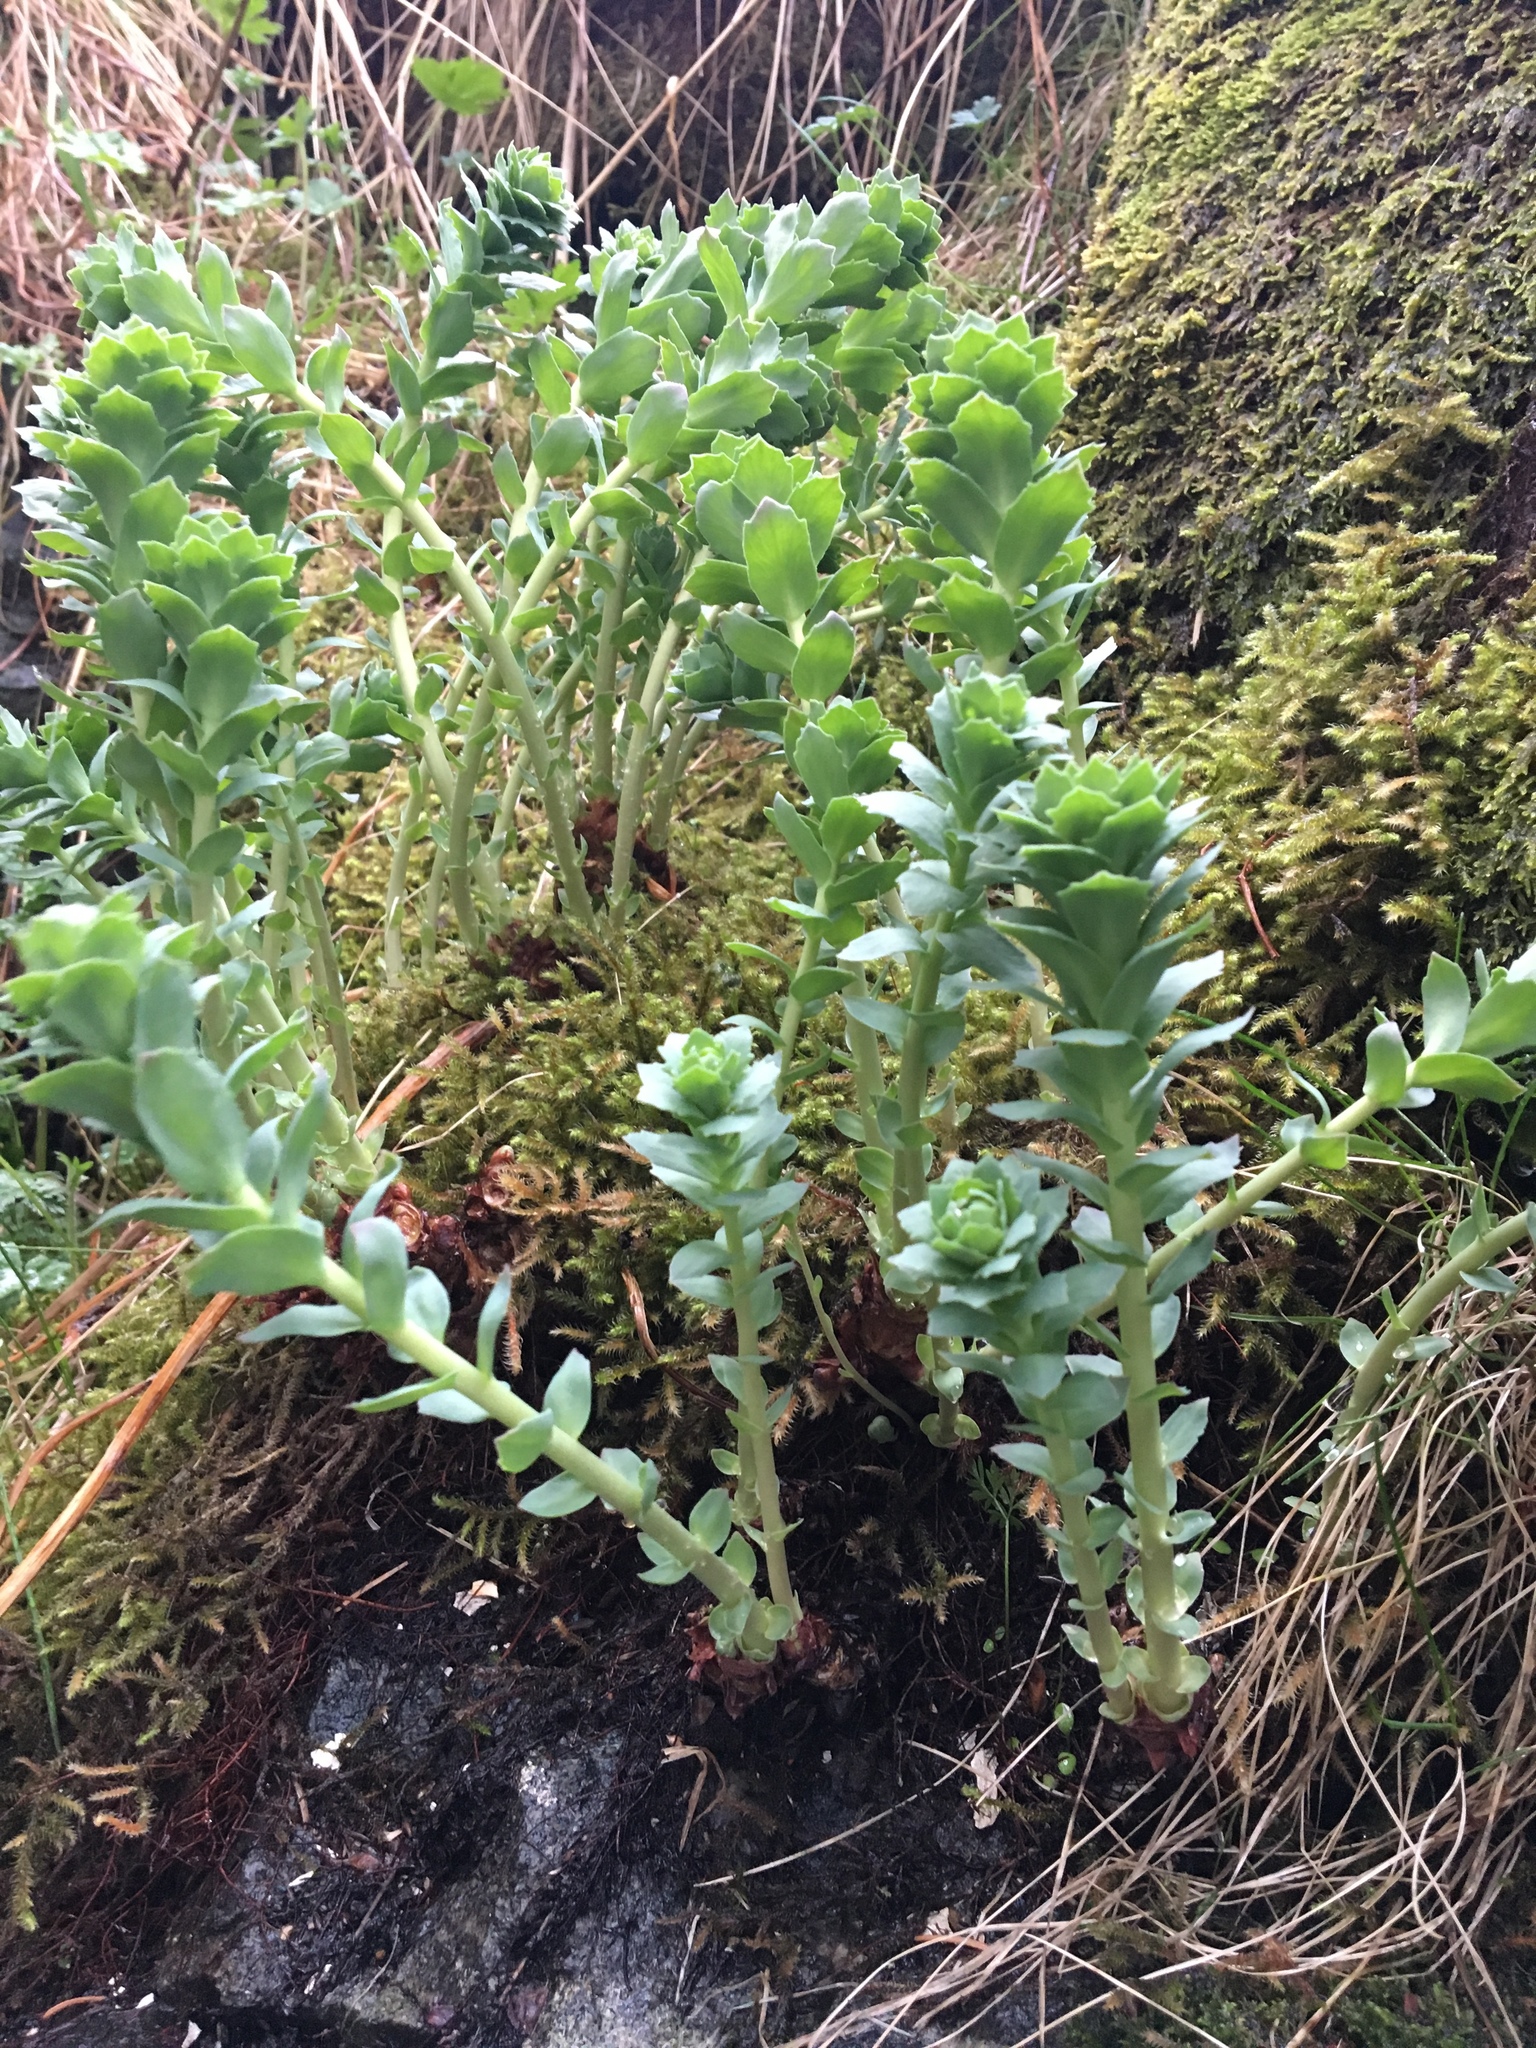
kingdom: Plantae
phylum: Tracheophyta
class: Magnoliopsida
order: Saxifragales
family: Crassulaceae
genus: Rhodiola
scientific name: Rhodiola rosea
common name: Roseroot
